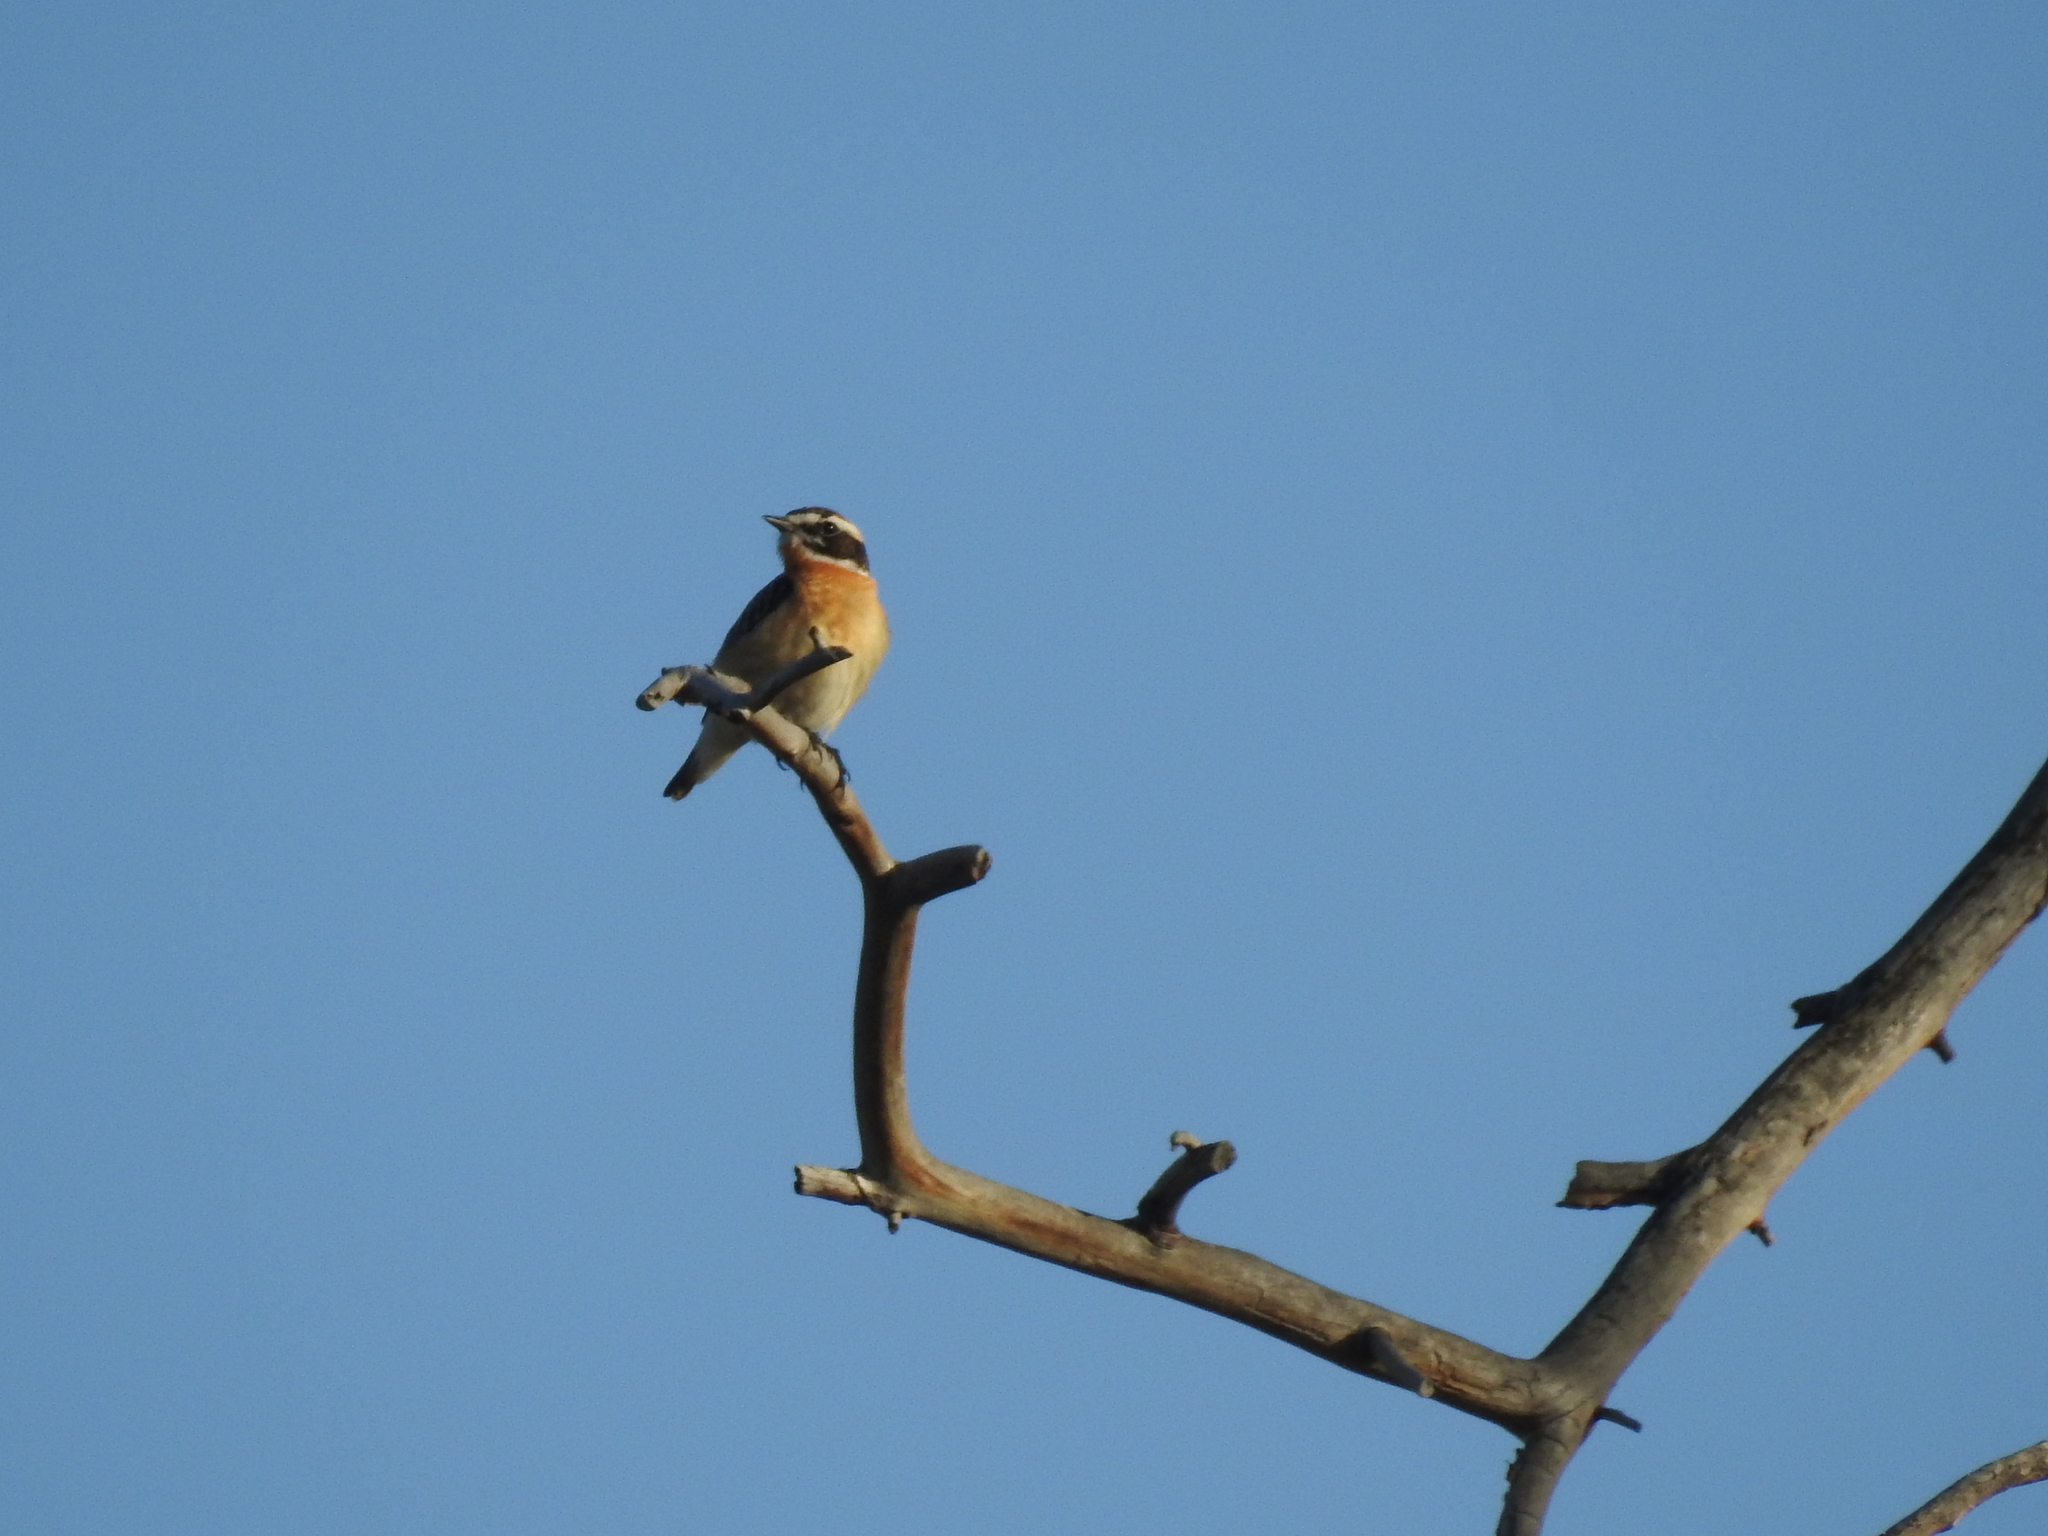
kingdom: Animalia
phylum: Chordata
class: Aves
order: Passeriformes
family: Muscicapidae
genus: Saxicola
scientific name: Saxicola rubetra
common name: Whinchat
